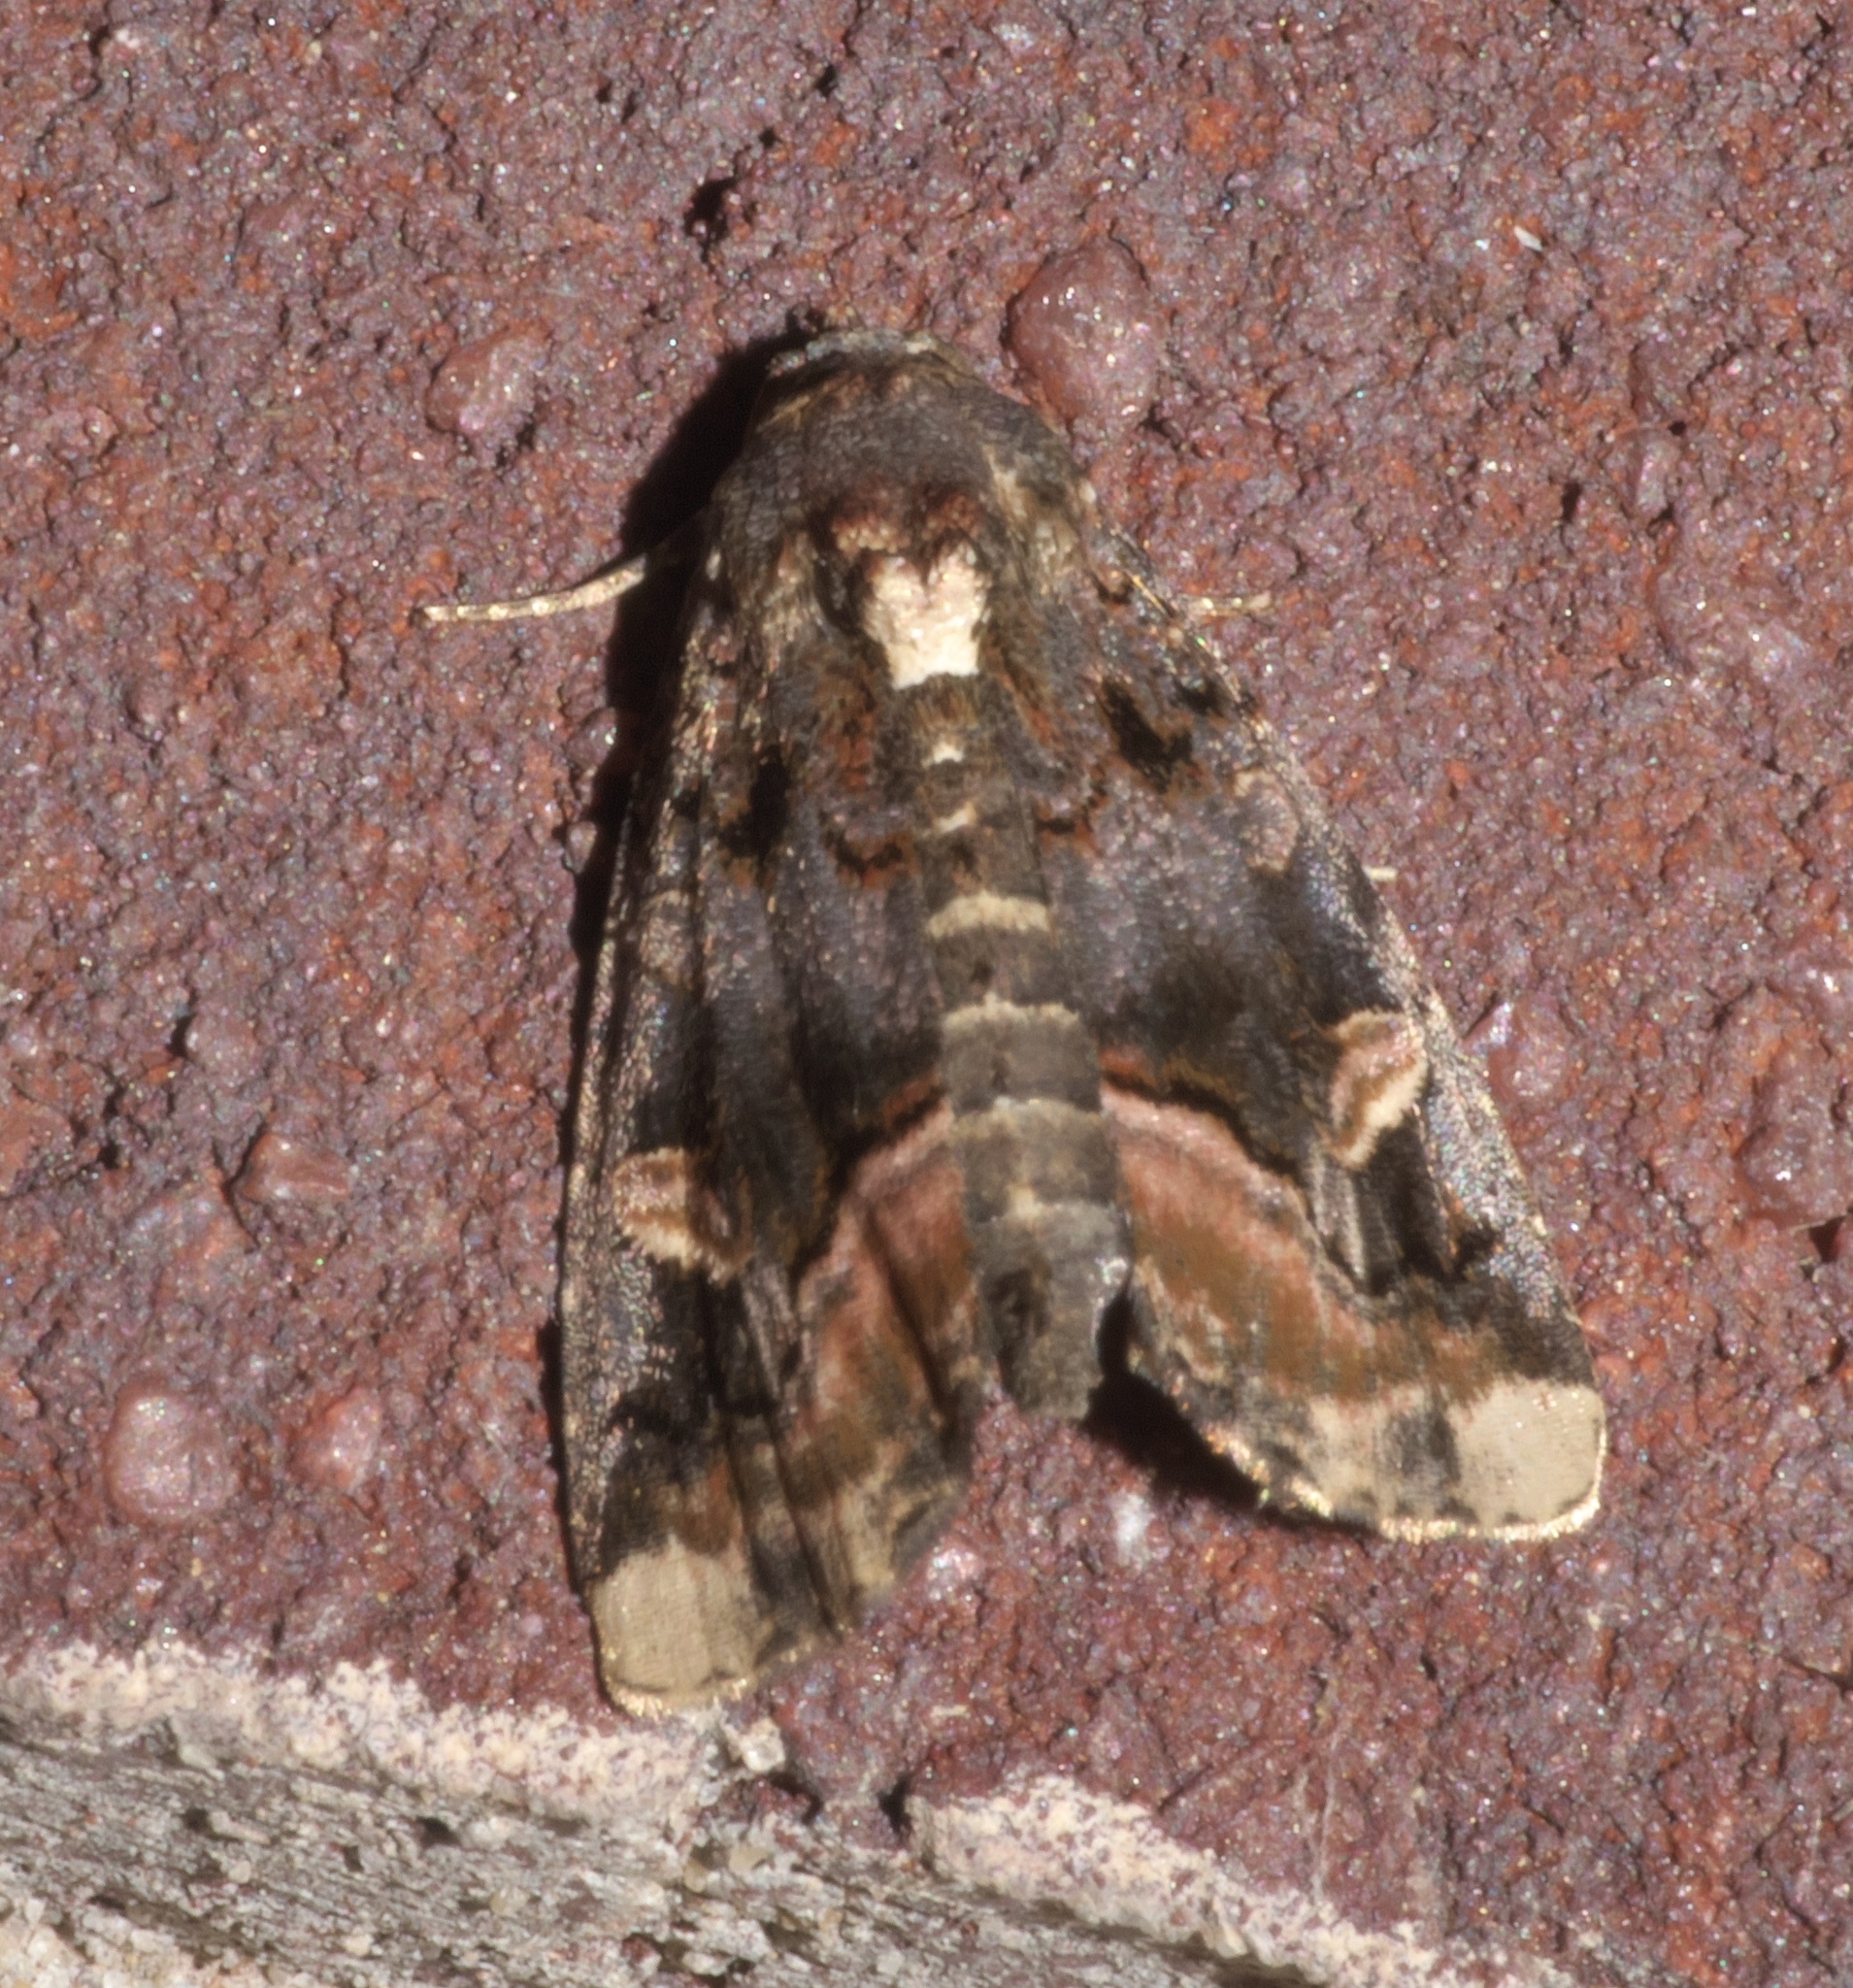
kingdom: Animalia
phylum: Arthropoda
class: Insecta
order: Lepidoptera
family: Noctuidae
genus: Homophoberia
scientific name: Homophoberia apicosa
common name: Black wedge-spot
